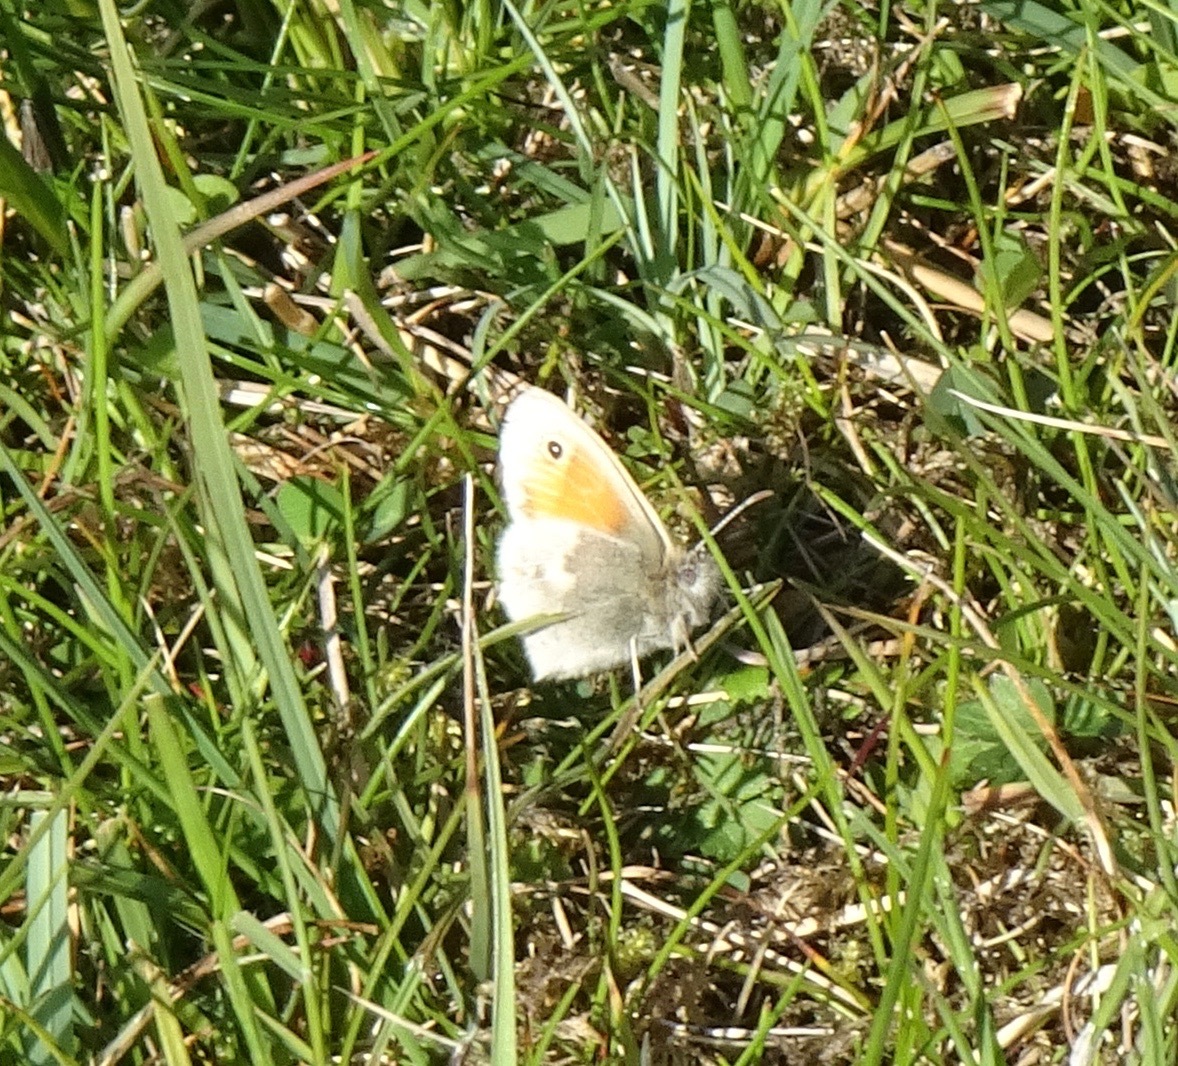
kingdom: Animalia
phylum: Arthropoda
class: Insecta
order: Lepidoptera
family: Nymphalidae
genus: Coenonympha
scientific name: Coenonympha pamphilus
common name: Small heath
